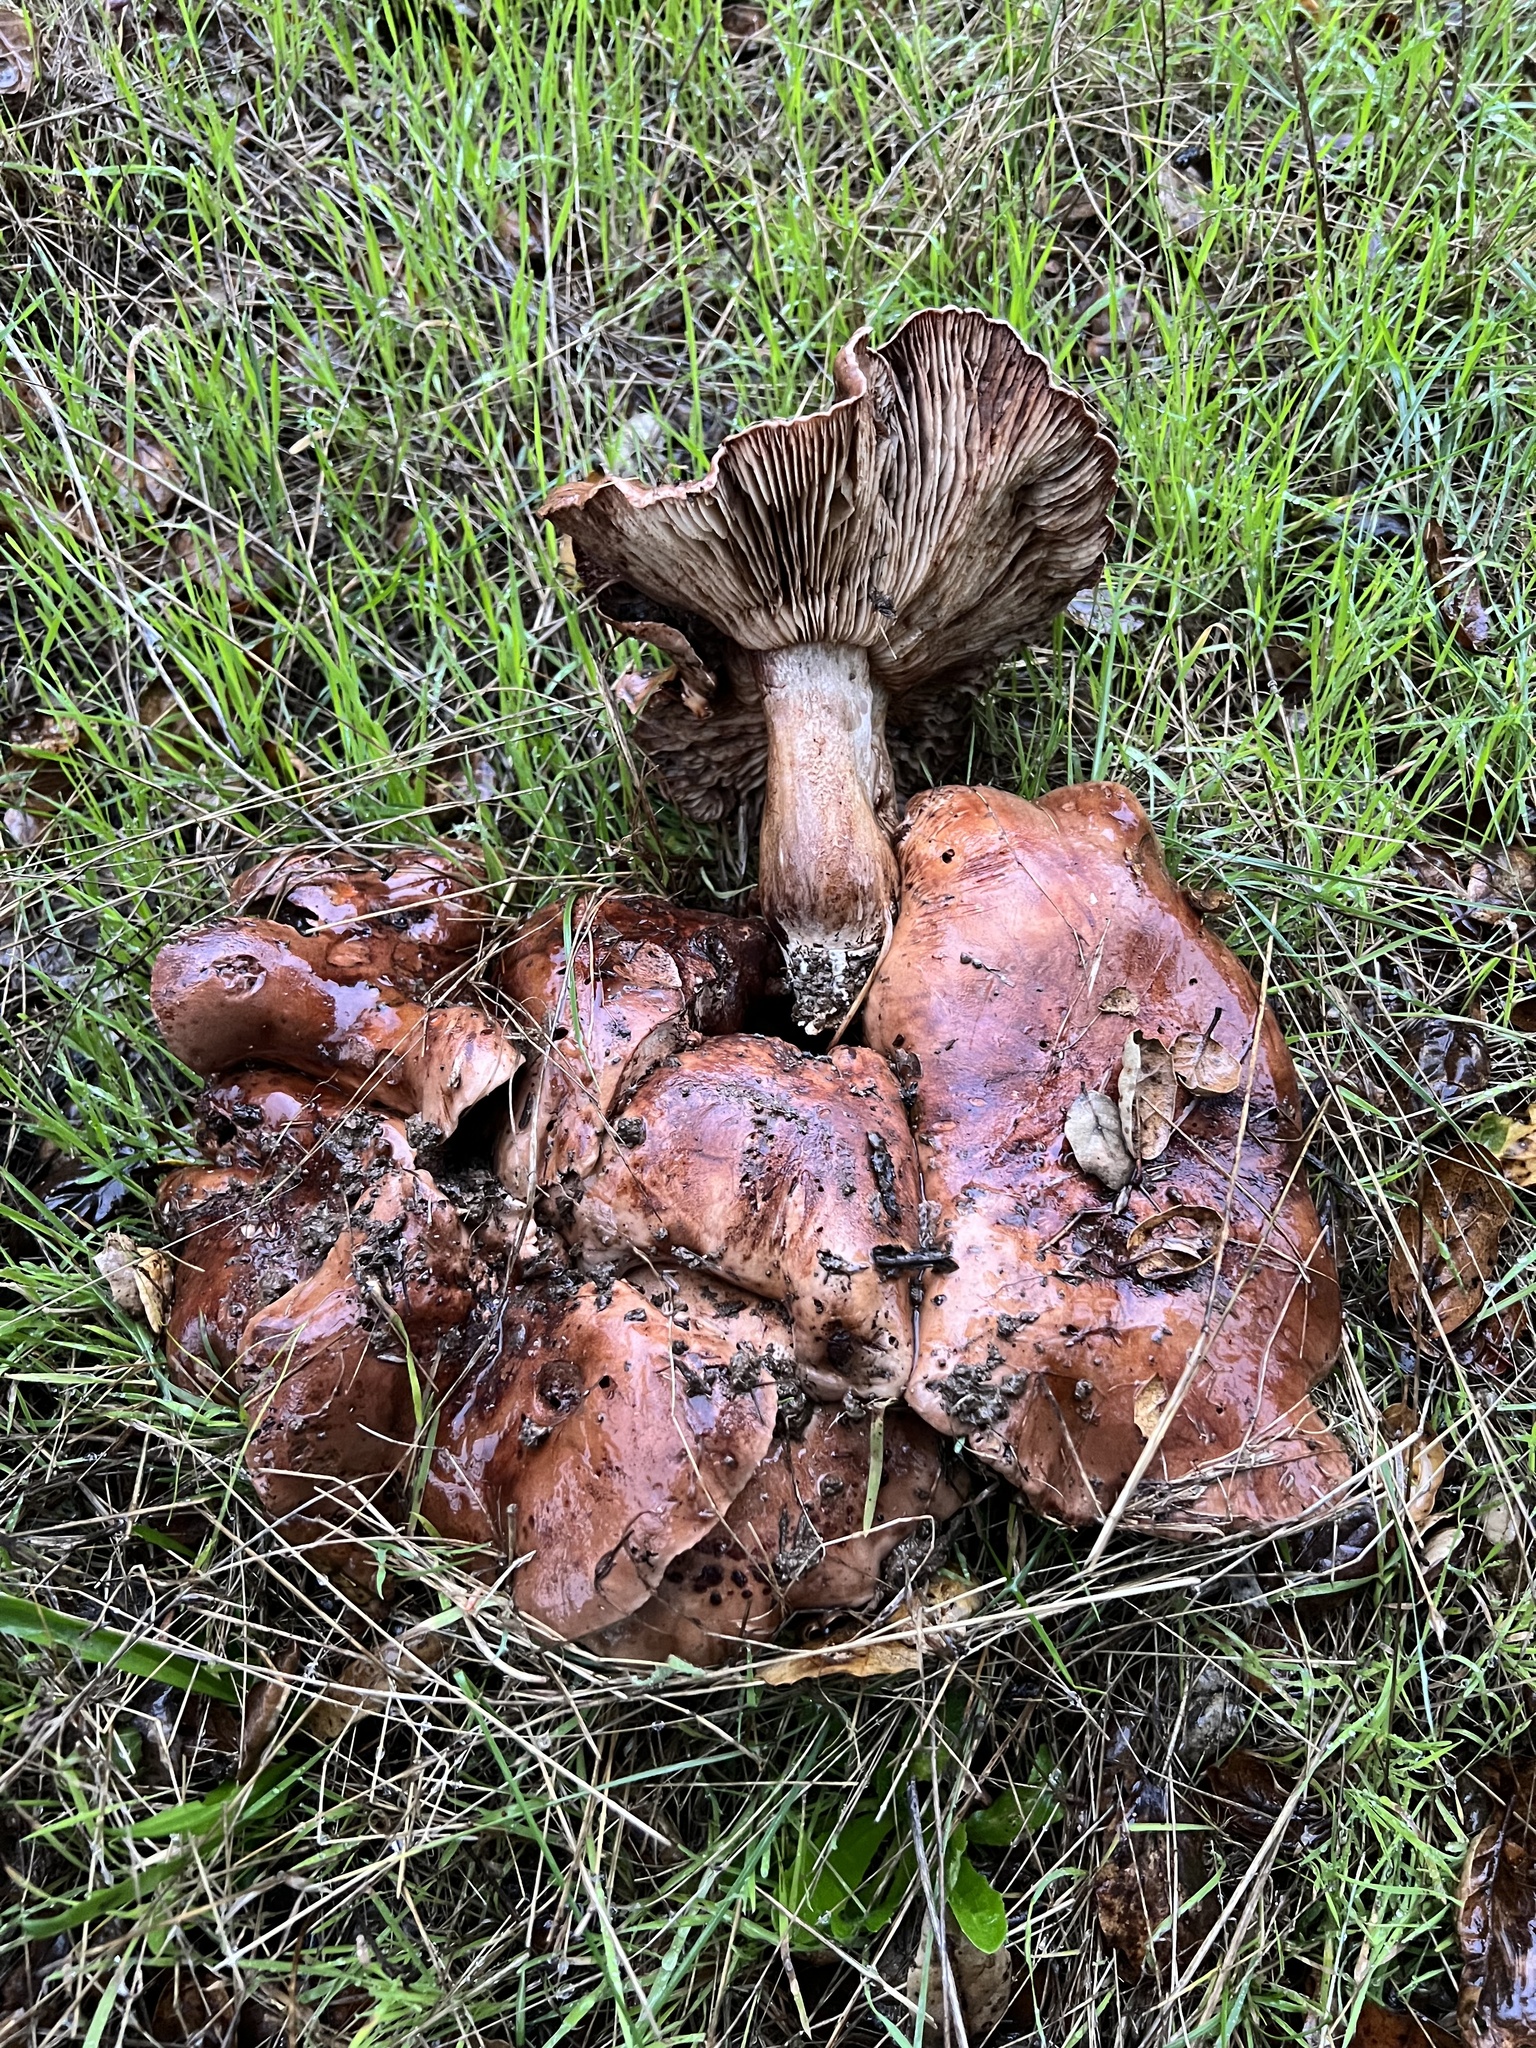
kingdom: Fungi
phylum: Basidiomycota
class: Agaricomycetes
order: Agaricales
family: Tricholomataceae
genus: Melanoleuca
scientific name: Melanoleuca dryophila
